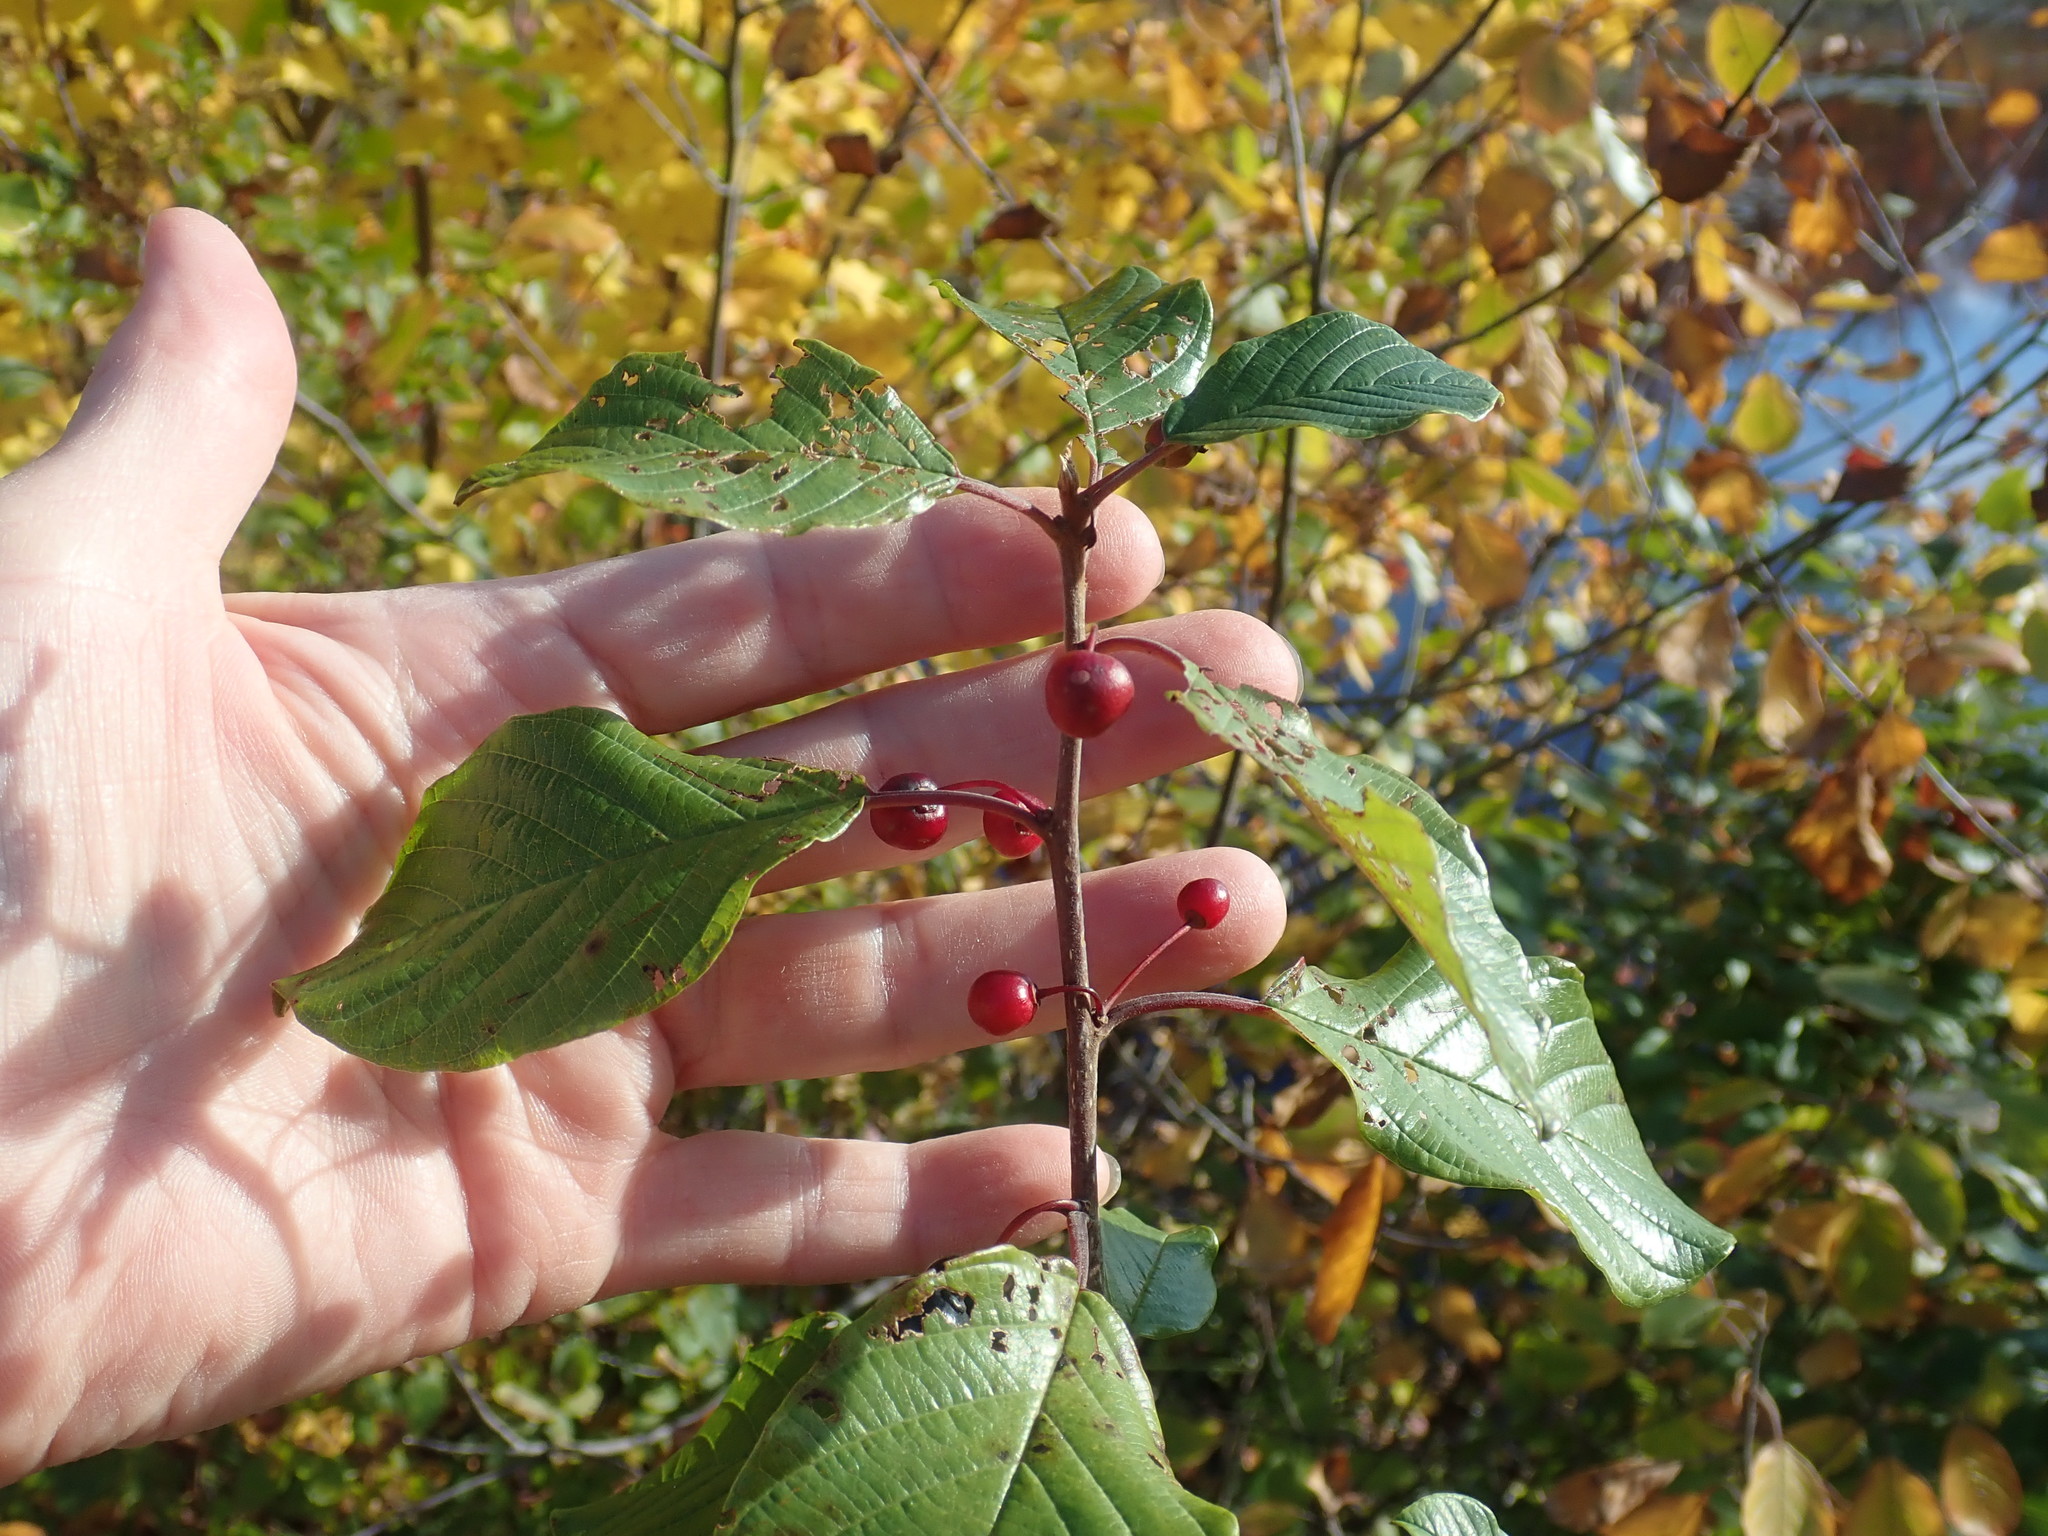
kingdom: Plantae
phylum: Tracheophyta
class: Magnoliopsida
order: Rosales
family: Rhamnaceae
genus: Frangula
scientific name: Frangula alnus
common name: Alder buckthorn
